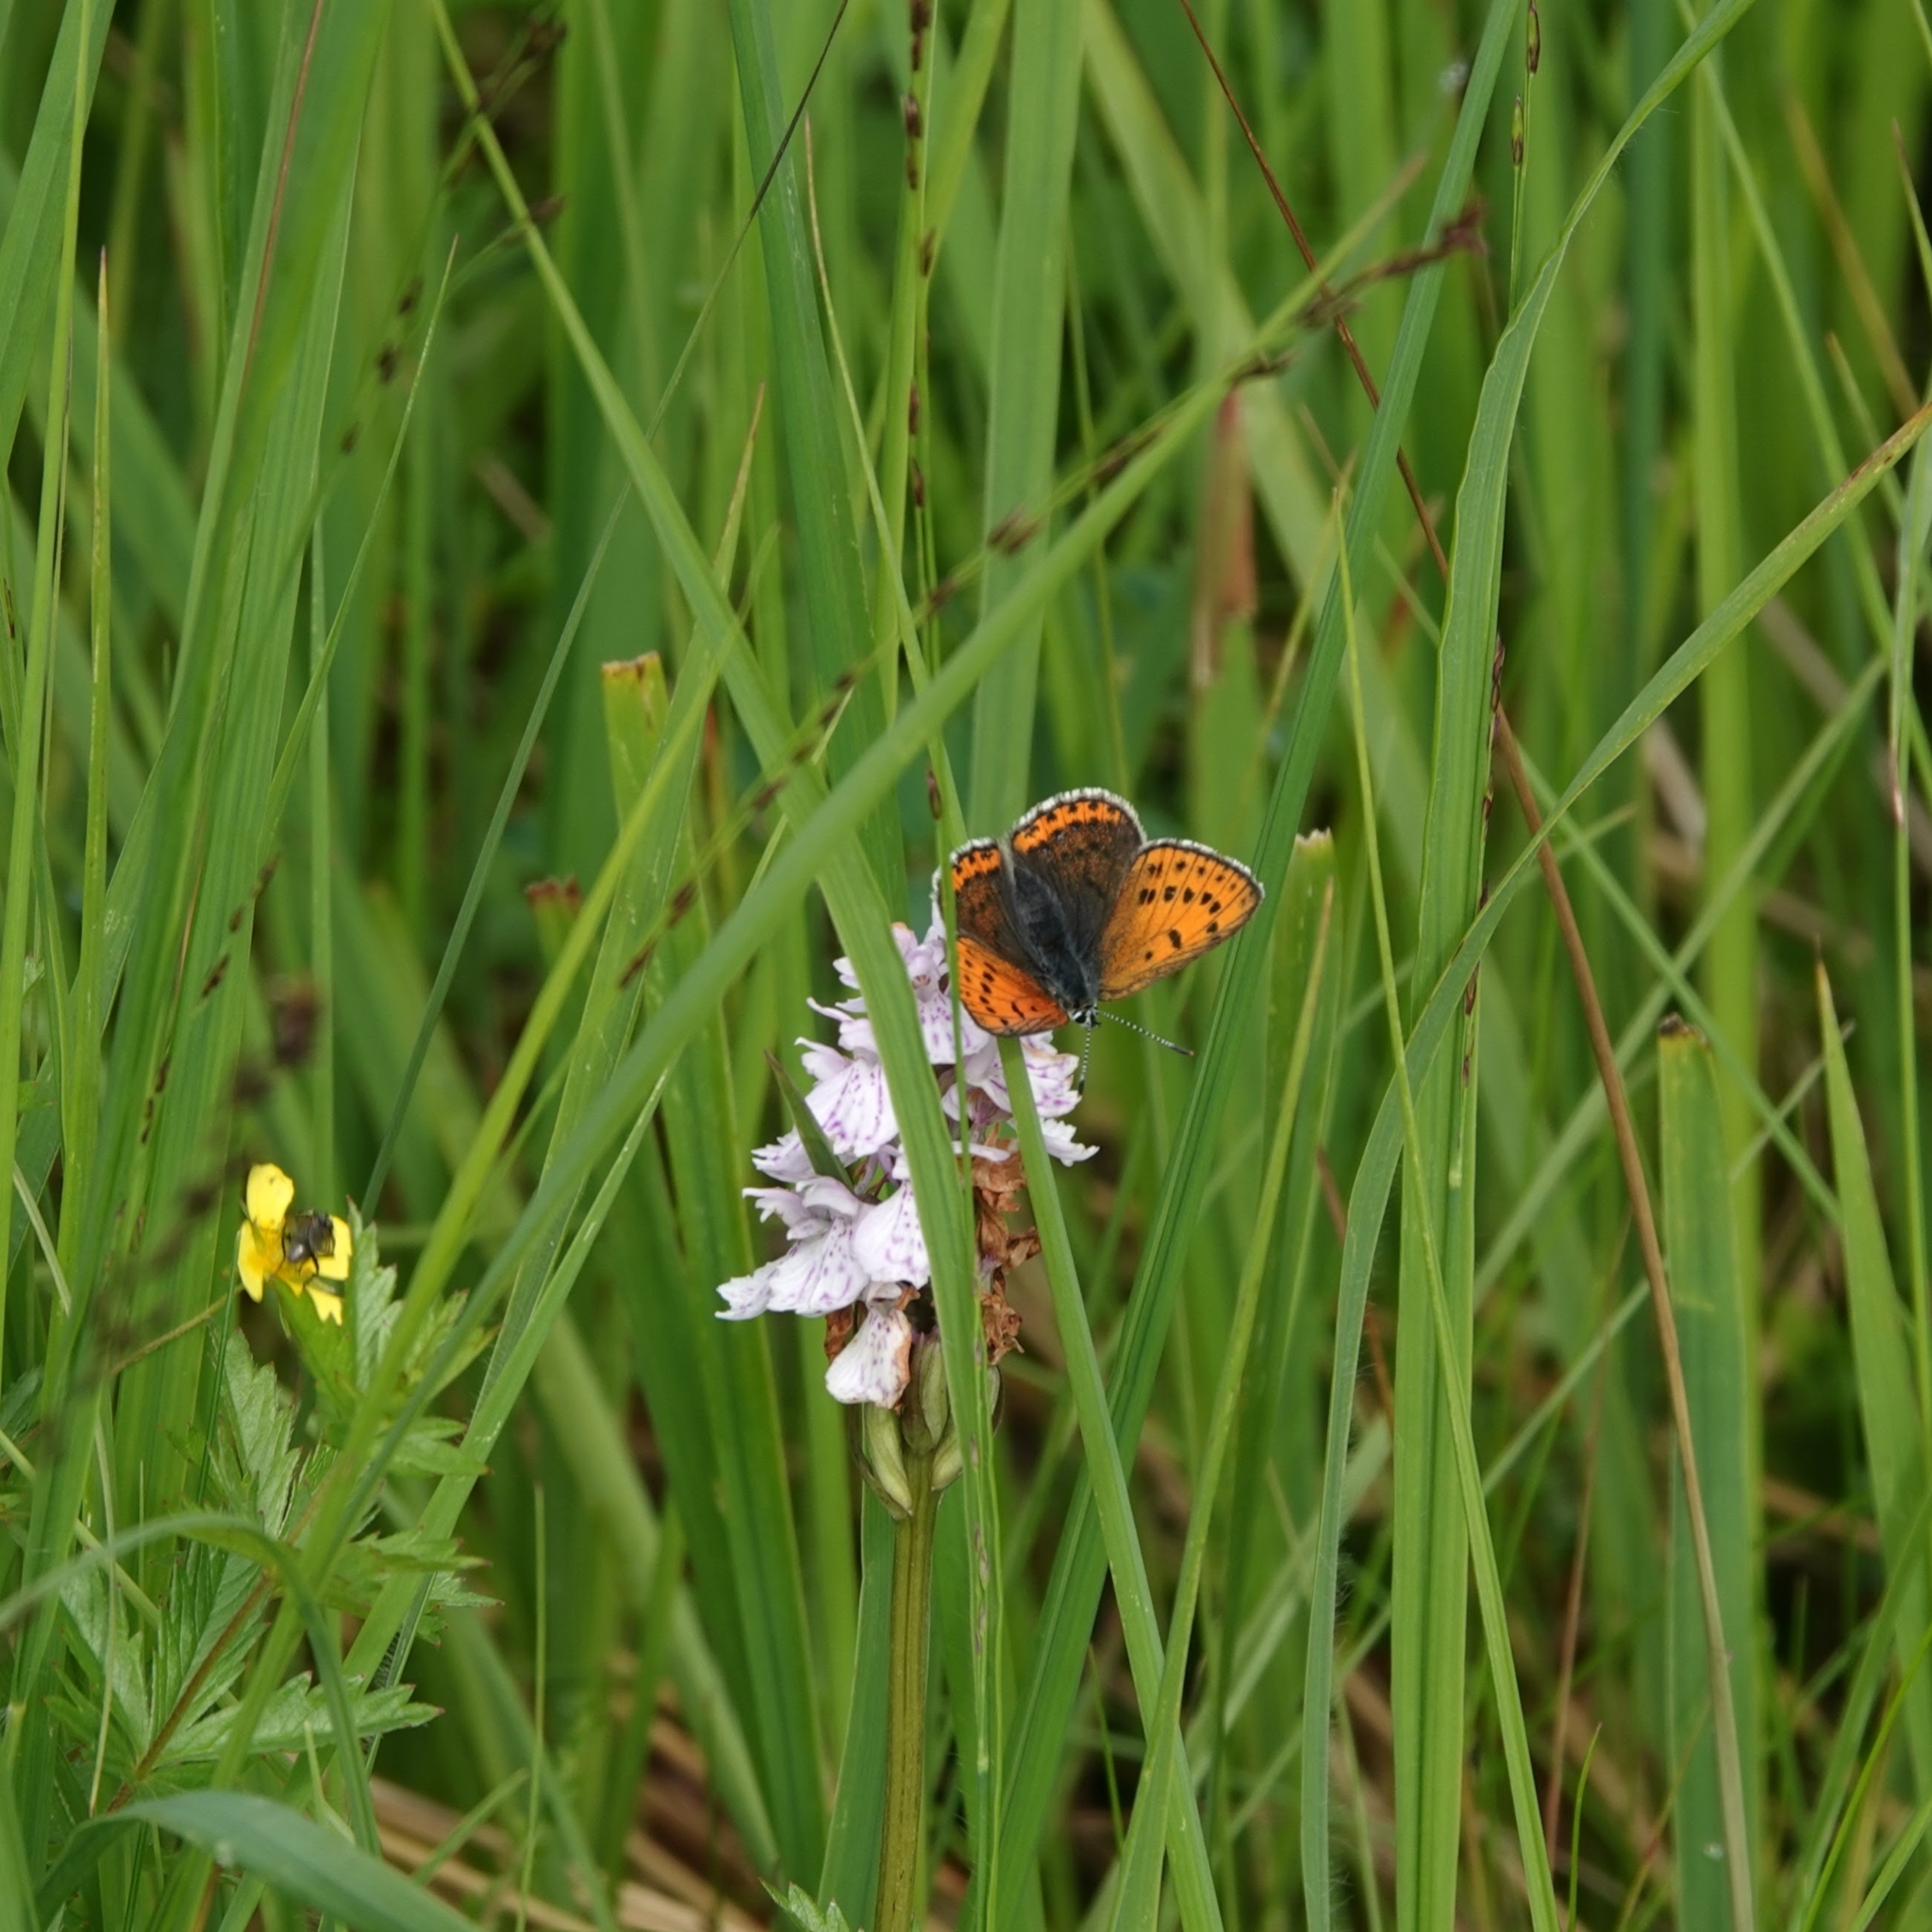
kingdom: Animalia
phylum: Arthropoda
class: Insecta
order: Lepidoptera
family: Lycaenidae
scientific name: Lycaenidae
